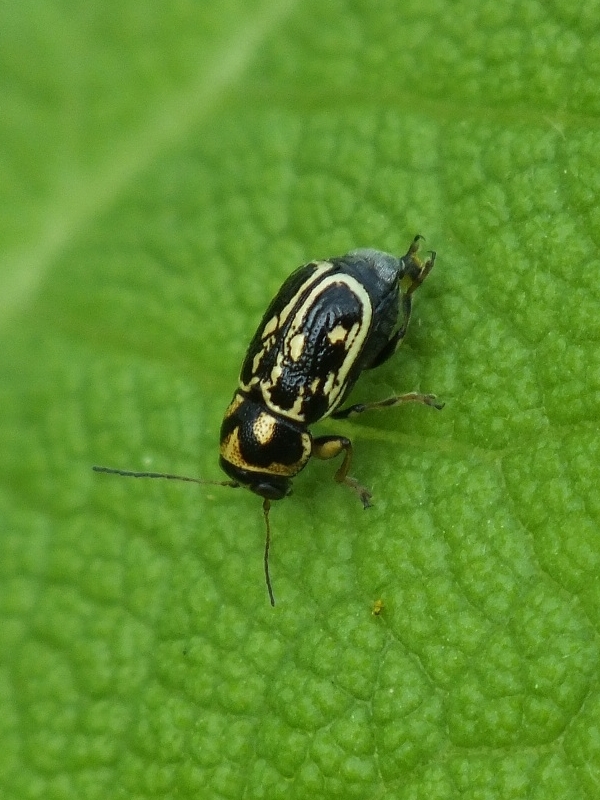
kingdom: Animalia
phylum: Arthropoda
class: Insecta
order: Coleoptera
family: Chrysomelidae
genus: Pachybrachis
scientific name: Pachybrachis fimbriolatus
